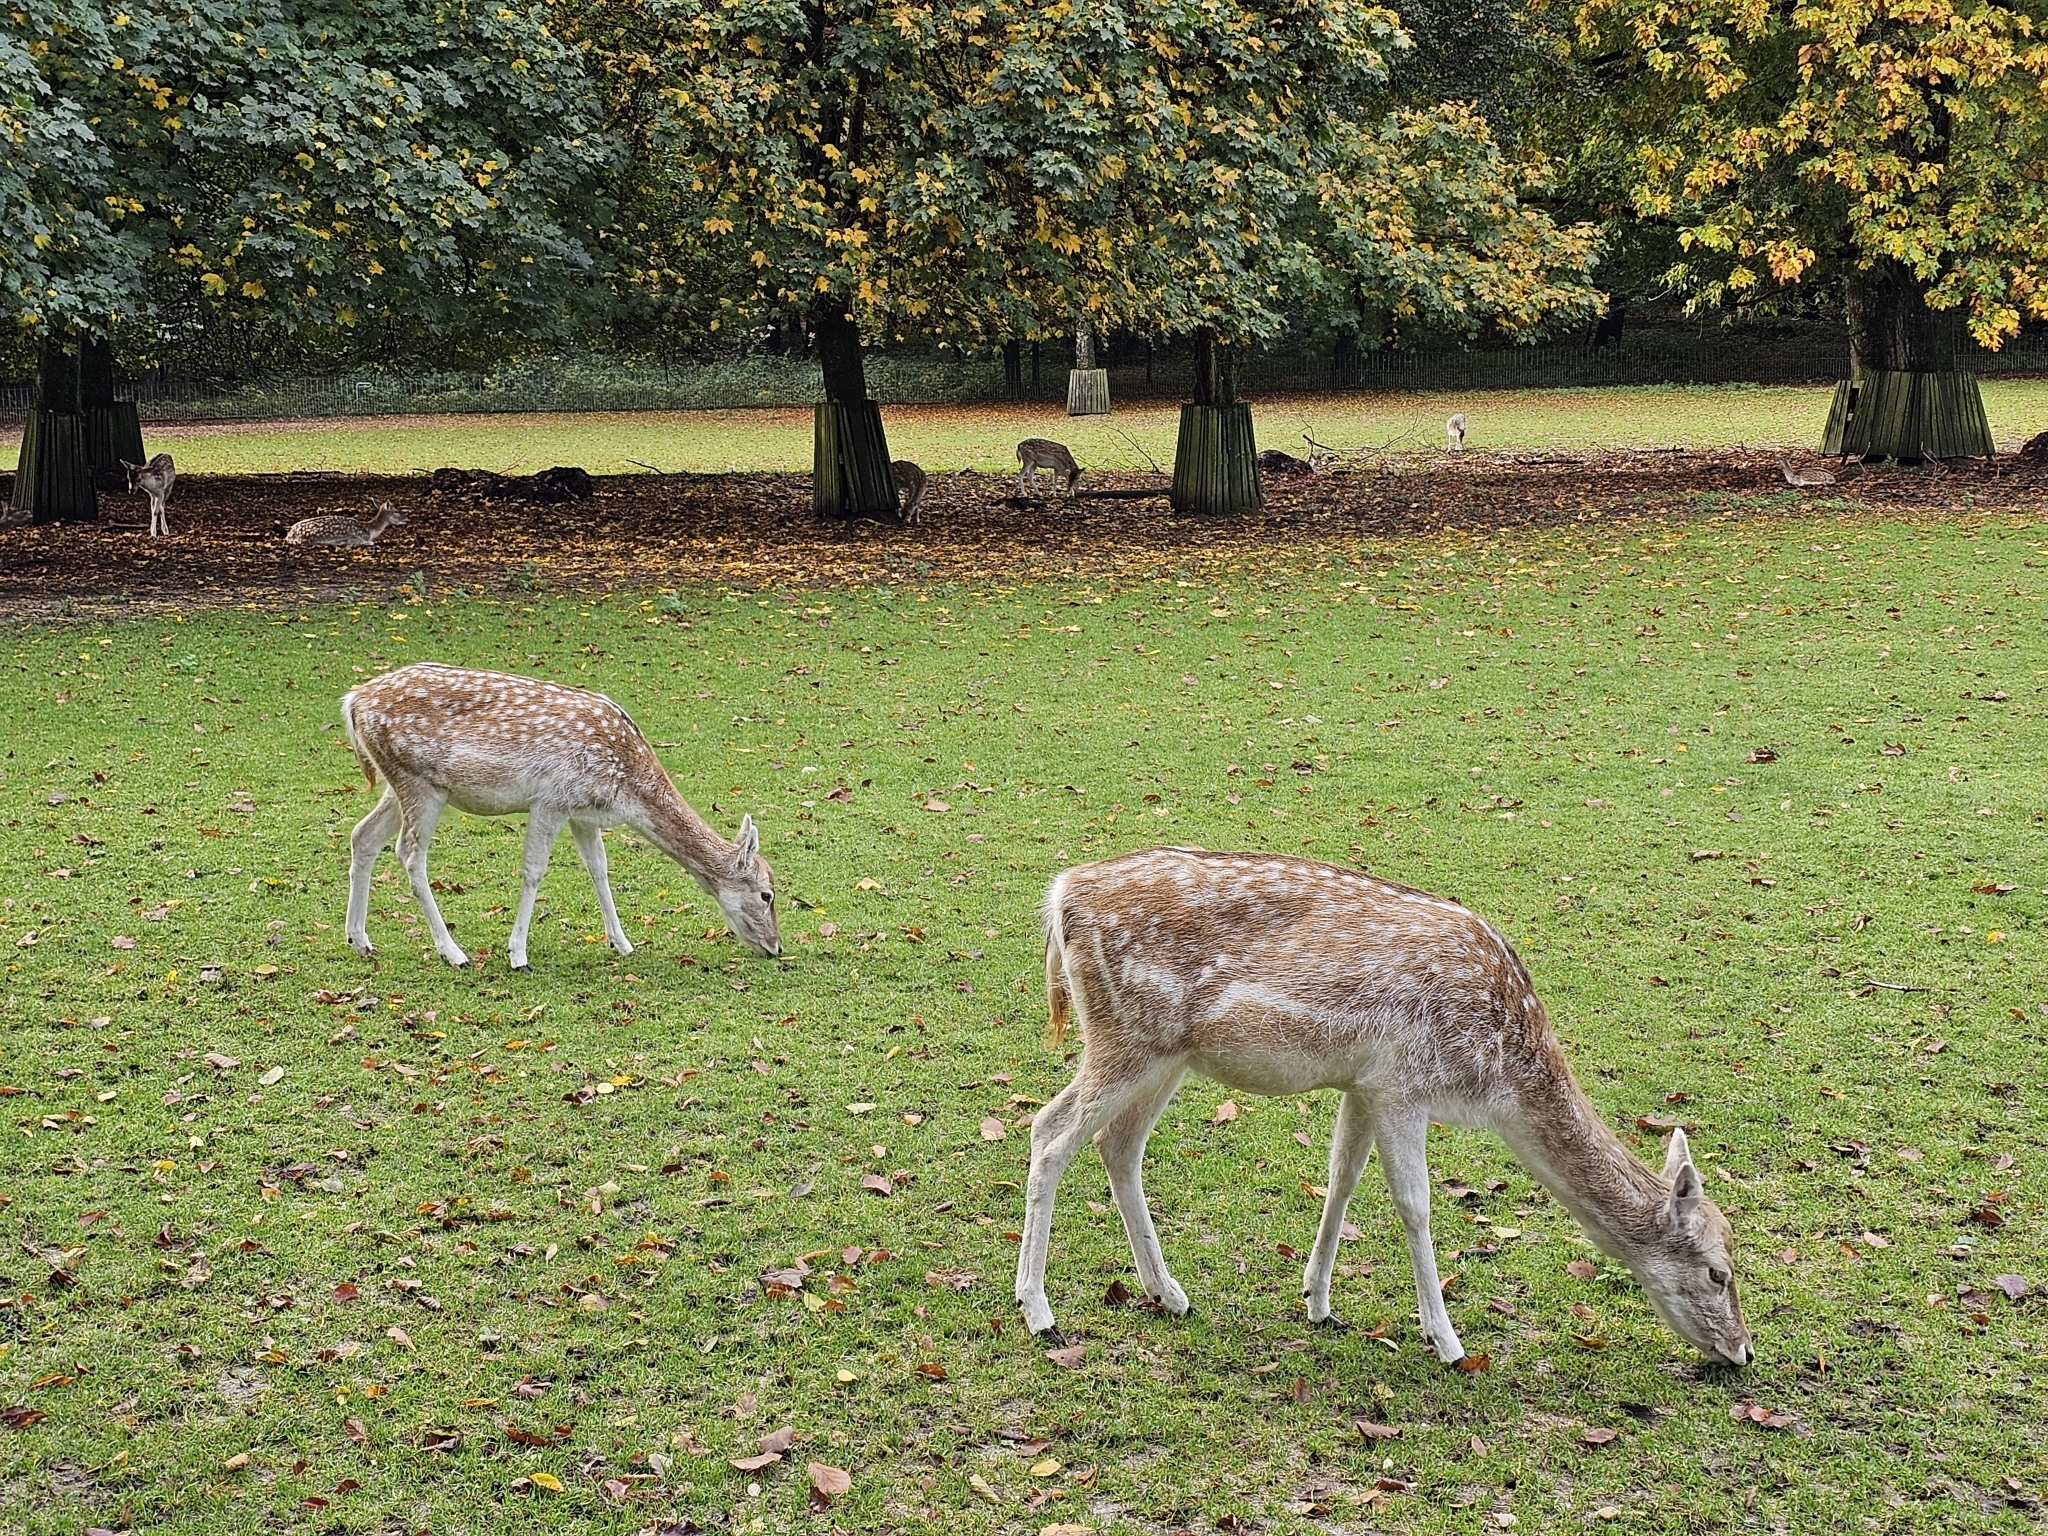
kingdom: Animalia
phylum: Chordata
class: Mammalia
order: Artiodactyla
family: Cervidae
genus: Dama
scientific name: Dama dama
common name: Fallow deer
